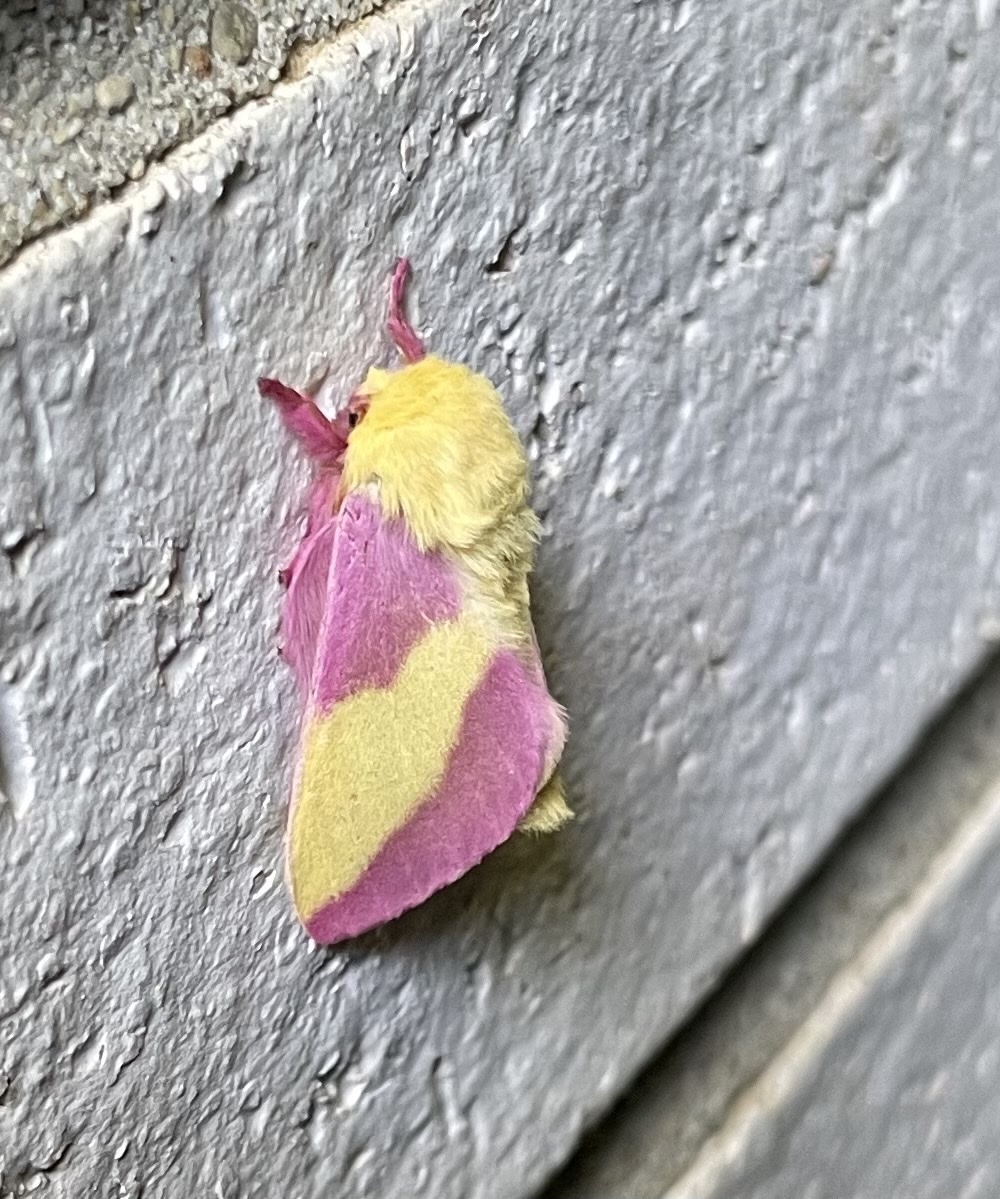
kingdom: Animalia
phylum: Arthropoda
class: Insecta
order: Lepidoptera
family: Saturniidae
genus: Dryocampa
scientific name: Dryocampa rubicunda
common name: Rosy maple moth
